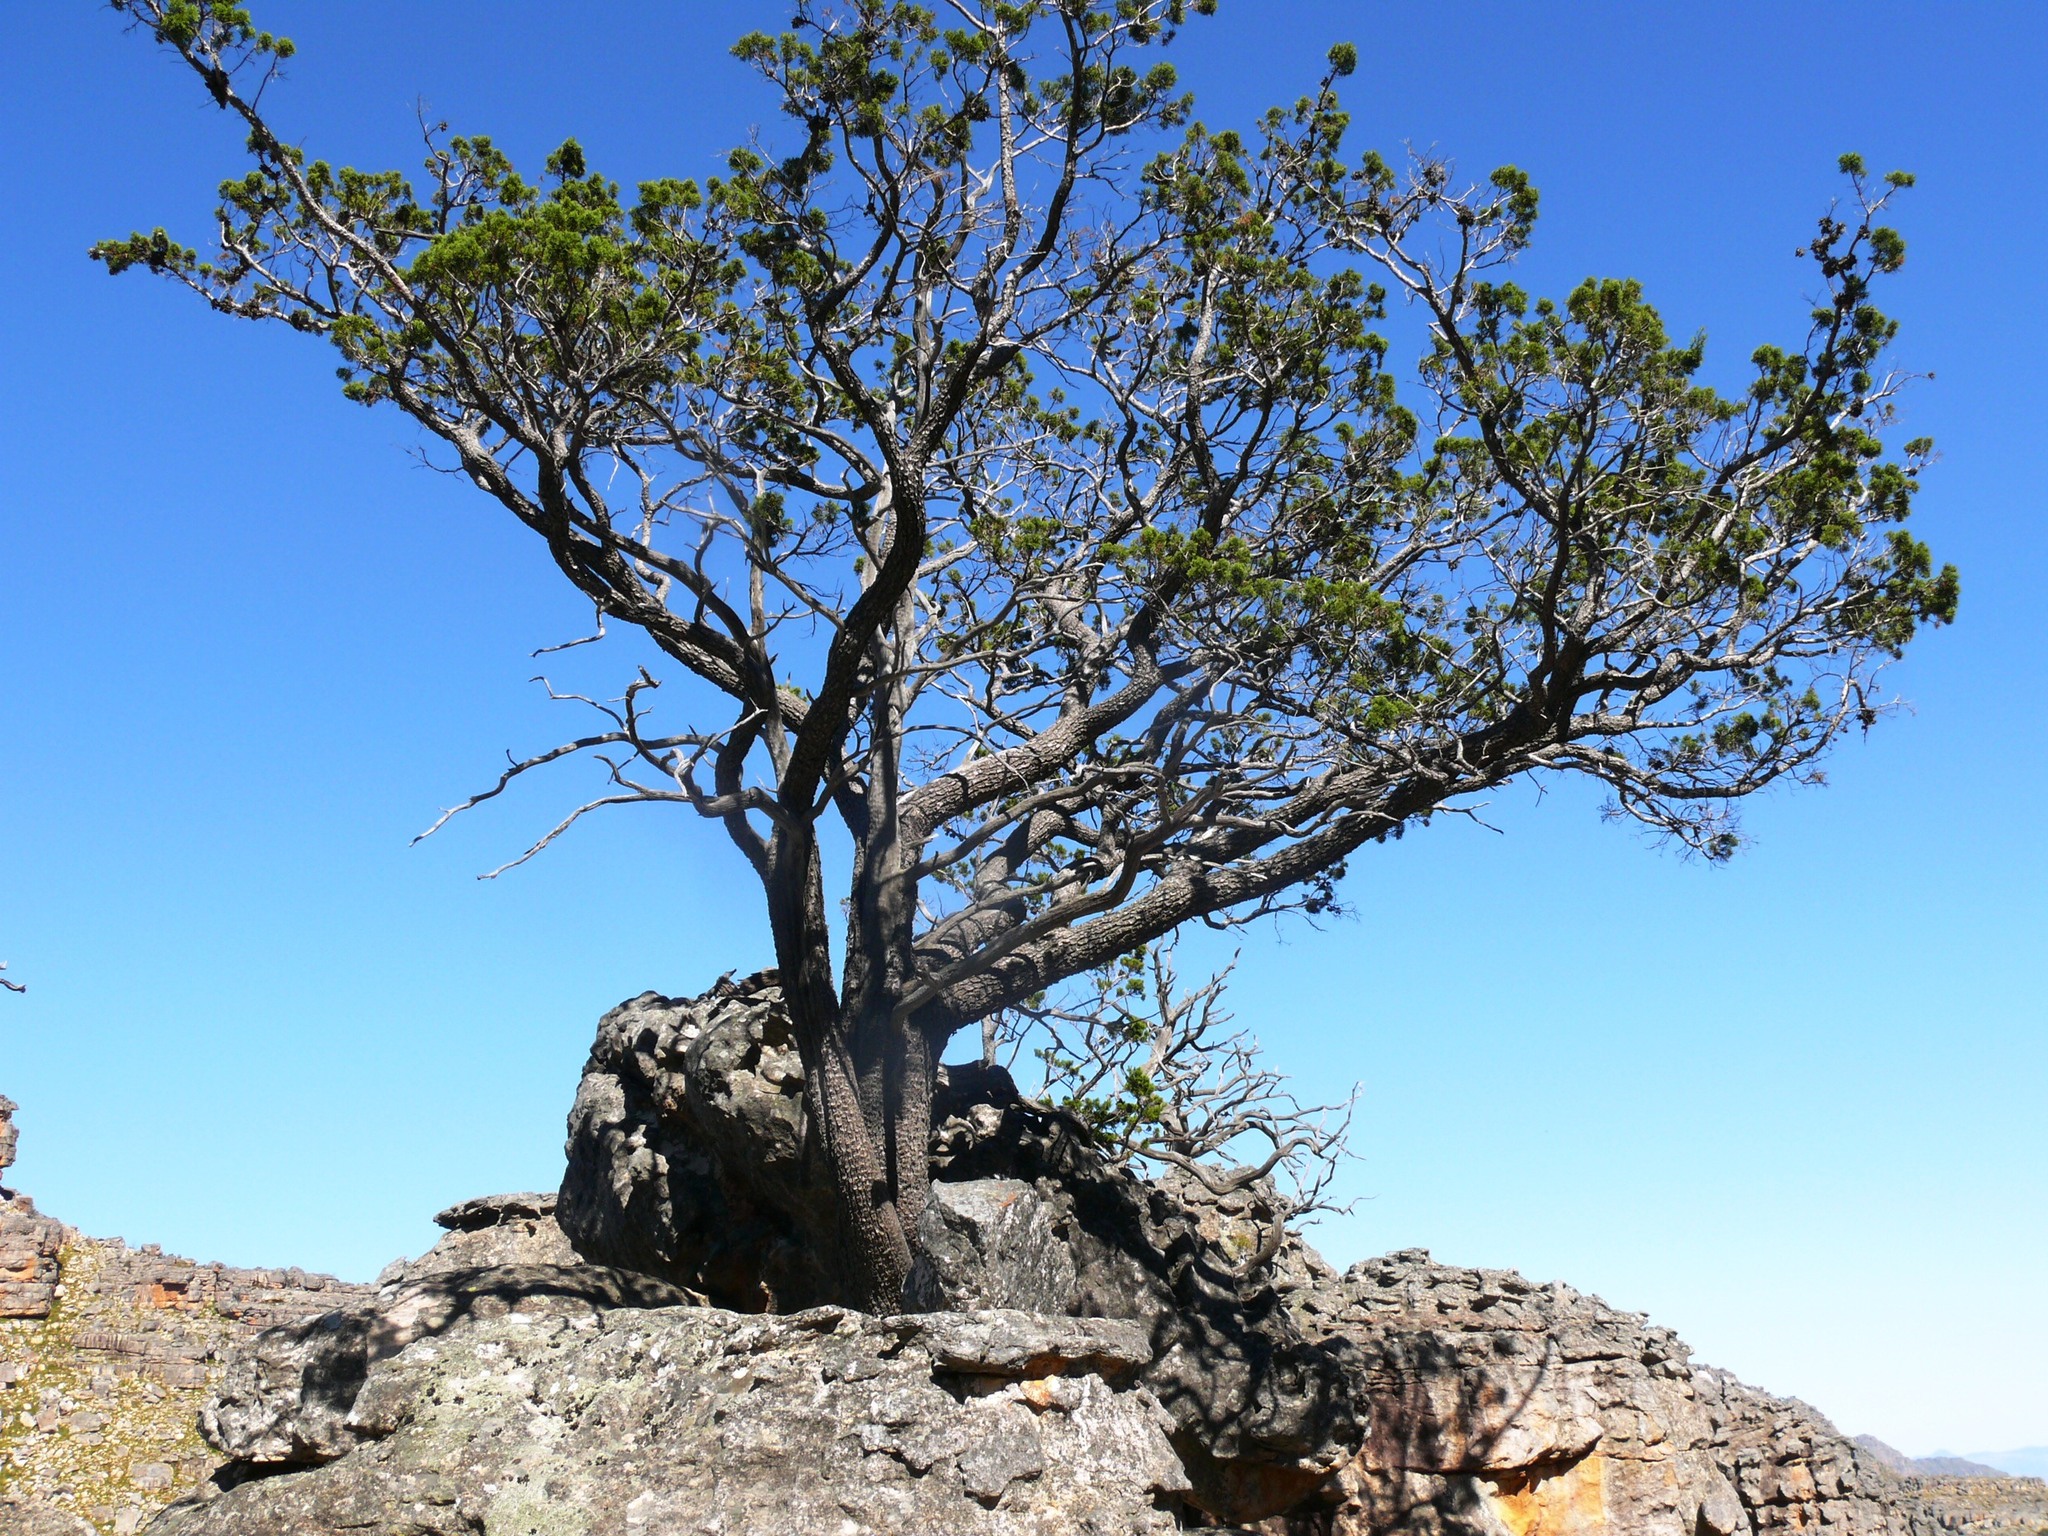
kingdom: Plantae
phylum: Tracheophyta
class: Pinopsida
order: Pinales
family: Cupressaceae
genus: Widdringtonia
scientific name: Widdringtonia nodiflora
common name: Cape cypress
